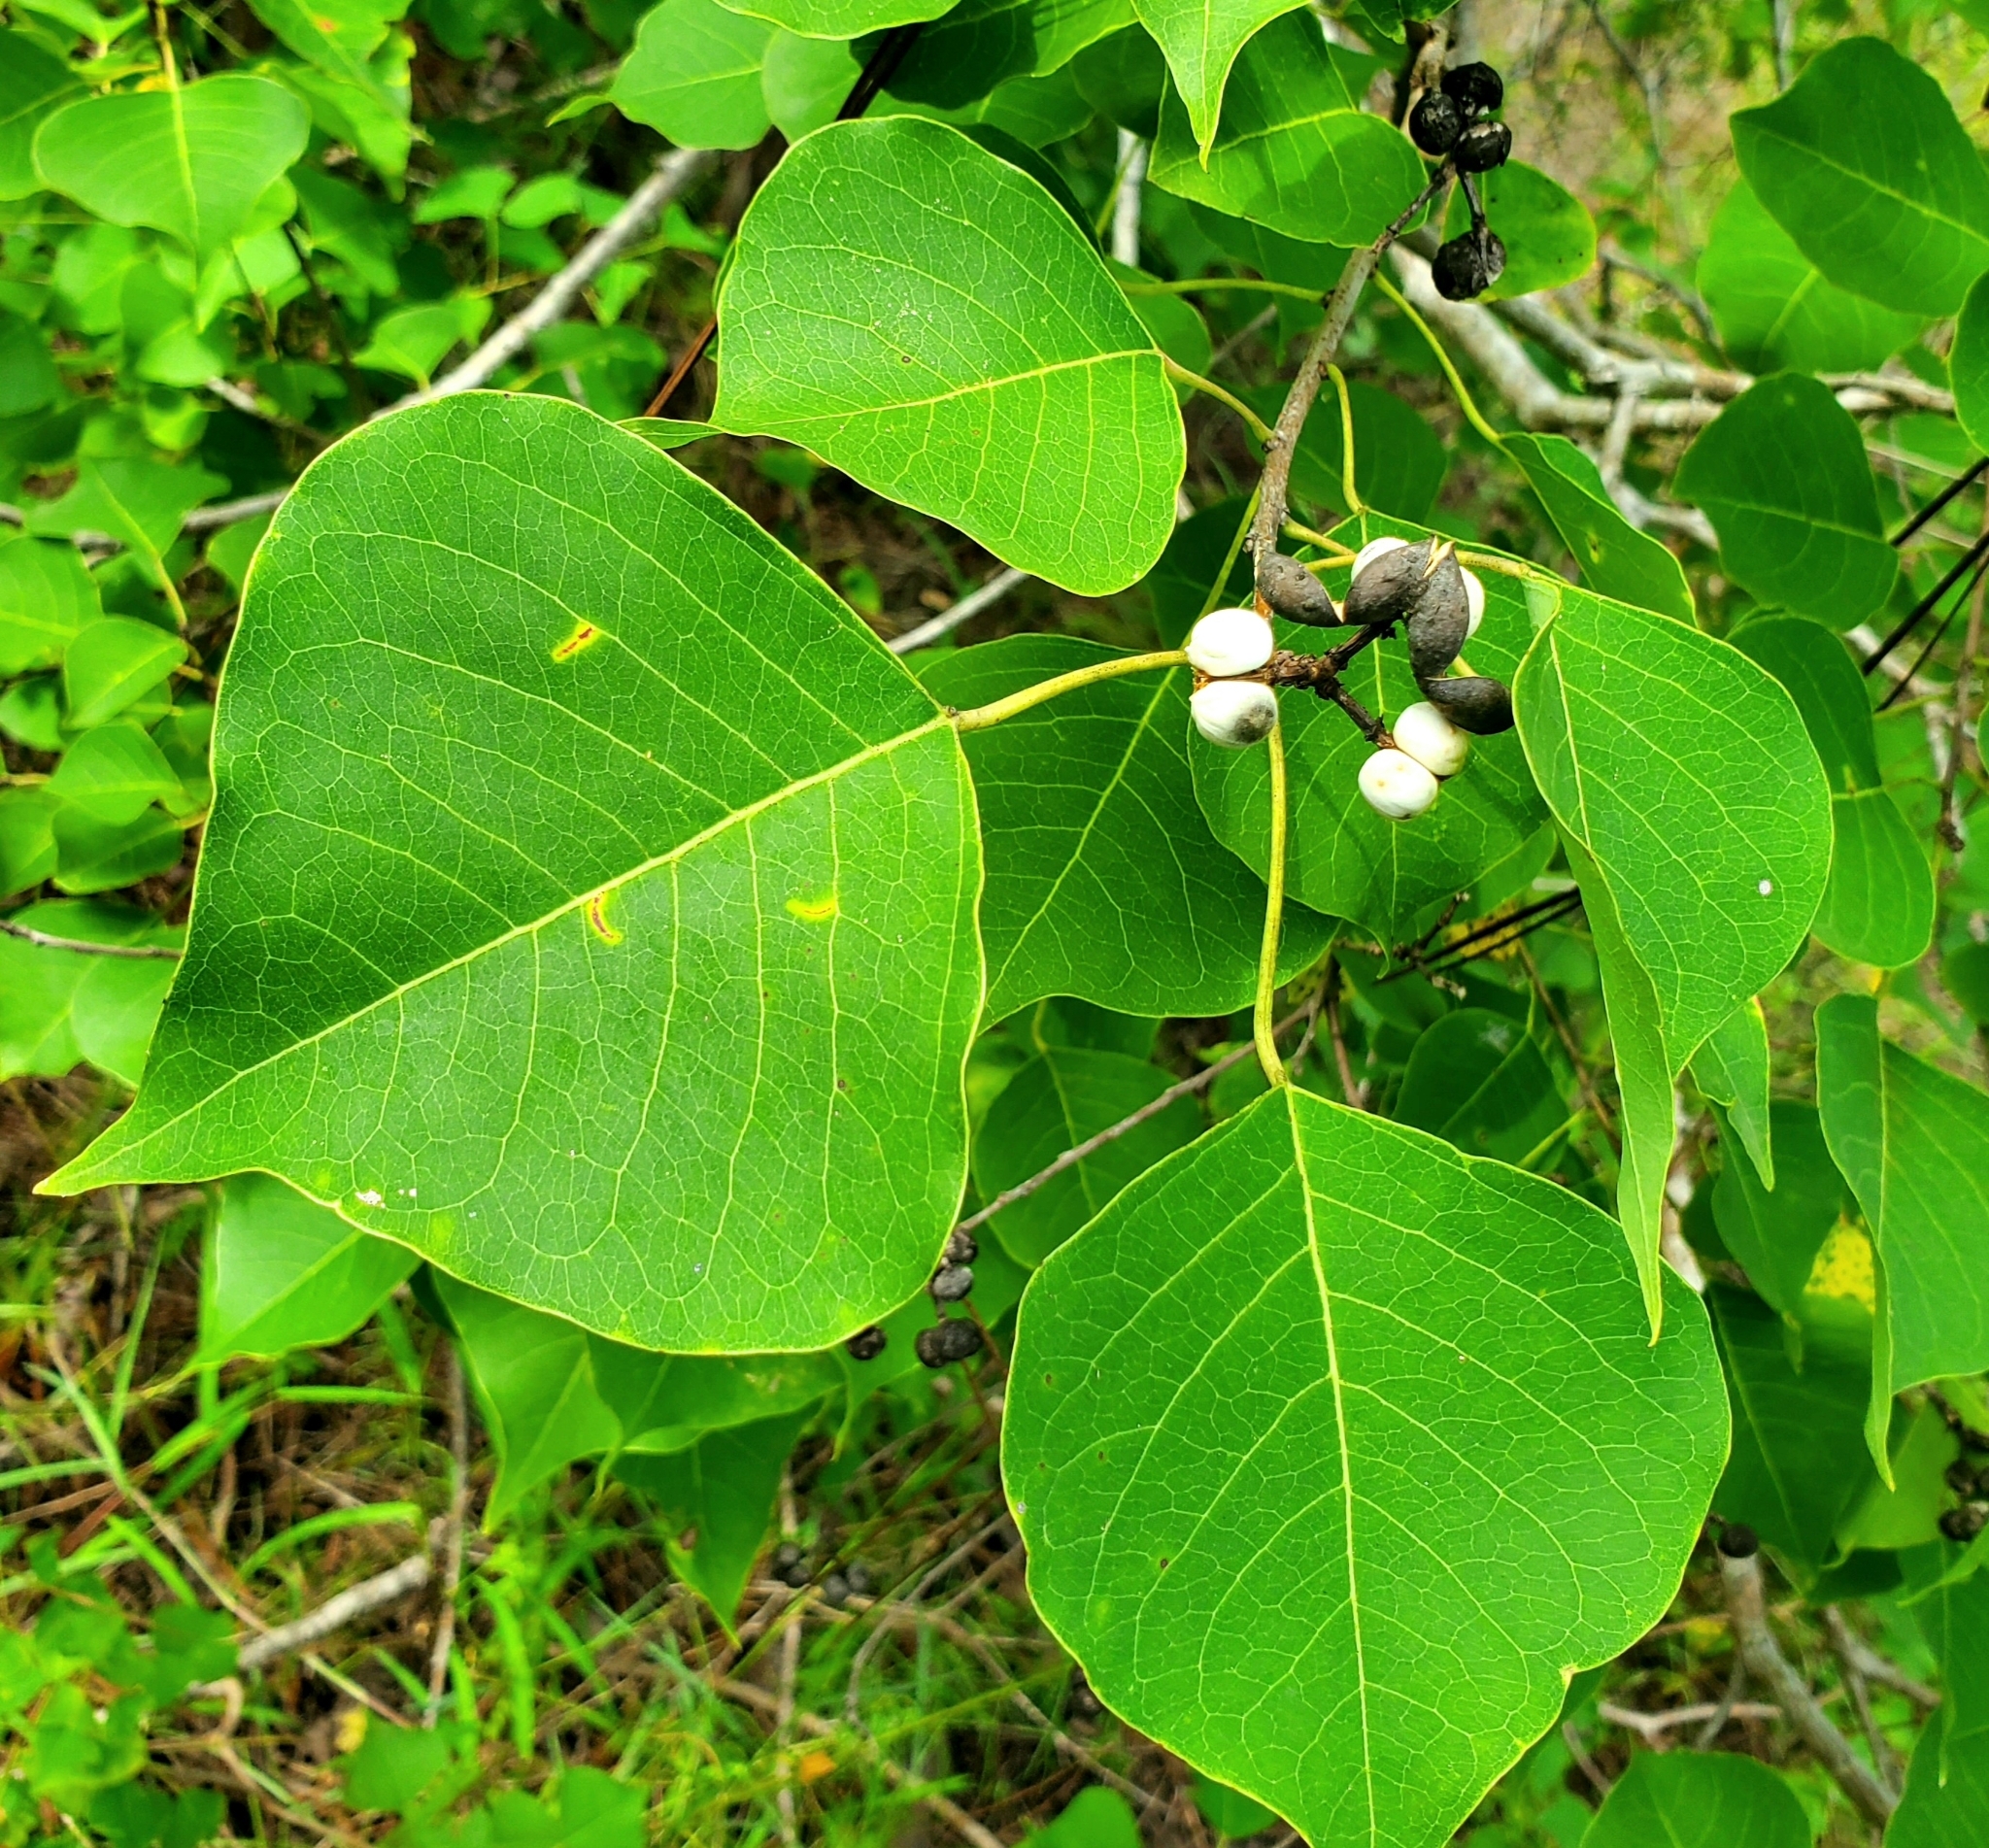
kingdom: Plantae
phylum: Tracheophyta
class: Magnoliopsida
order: Malpighiales
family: Euphorbiaceae
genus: Triadica
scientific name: Triadica sebifera
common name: Chinese tallow
